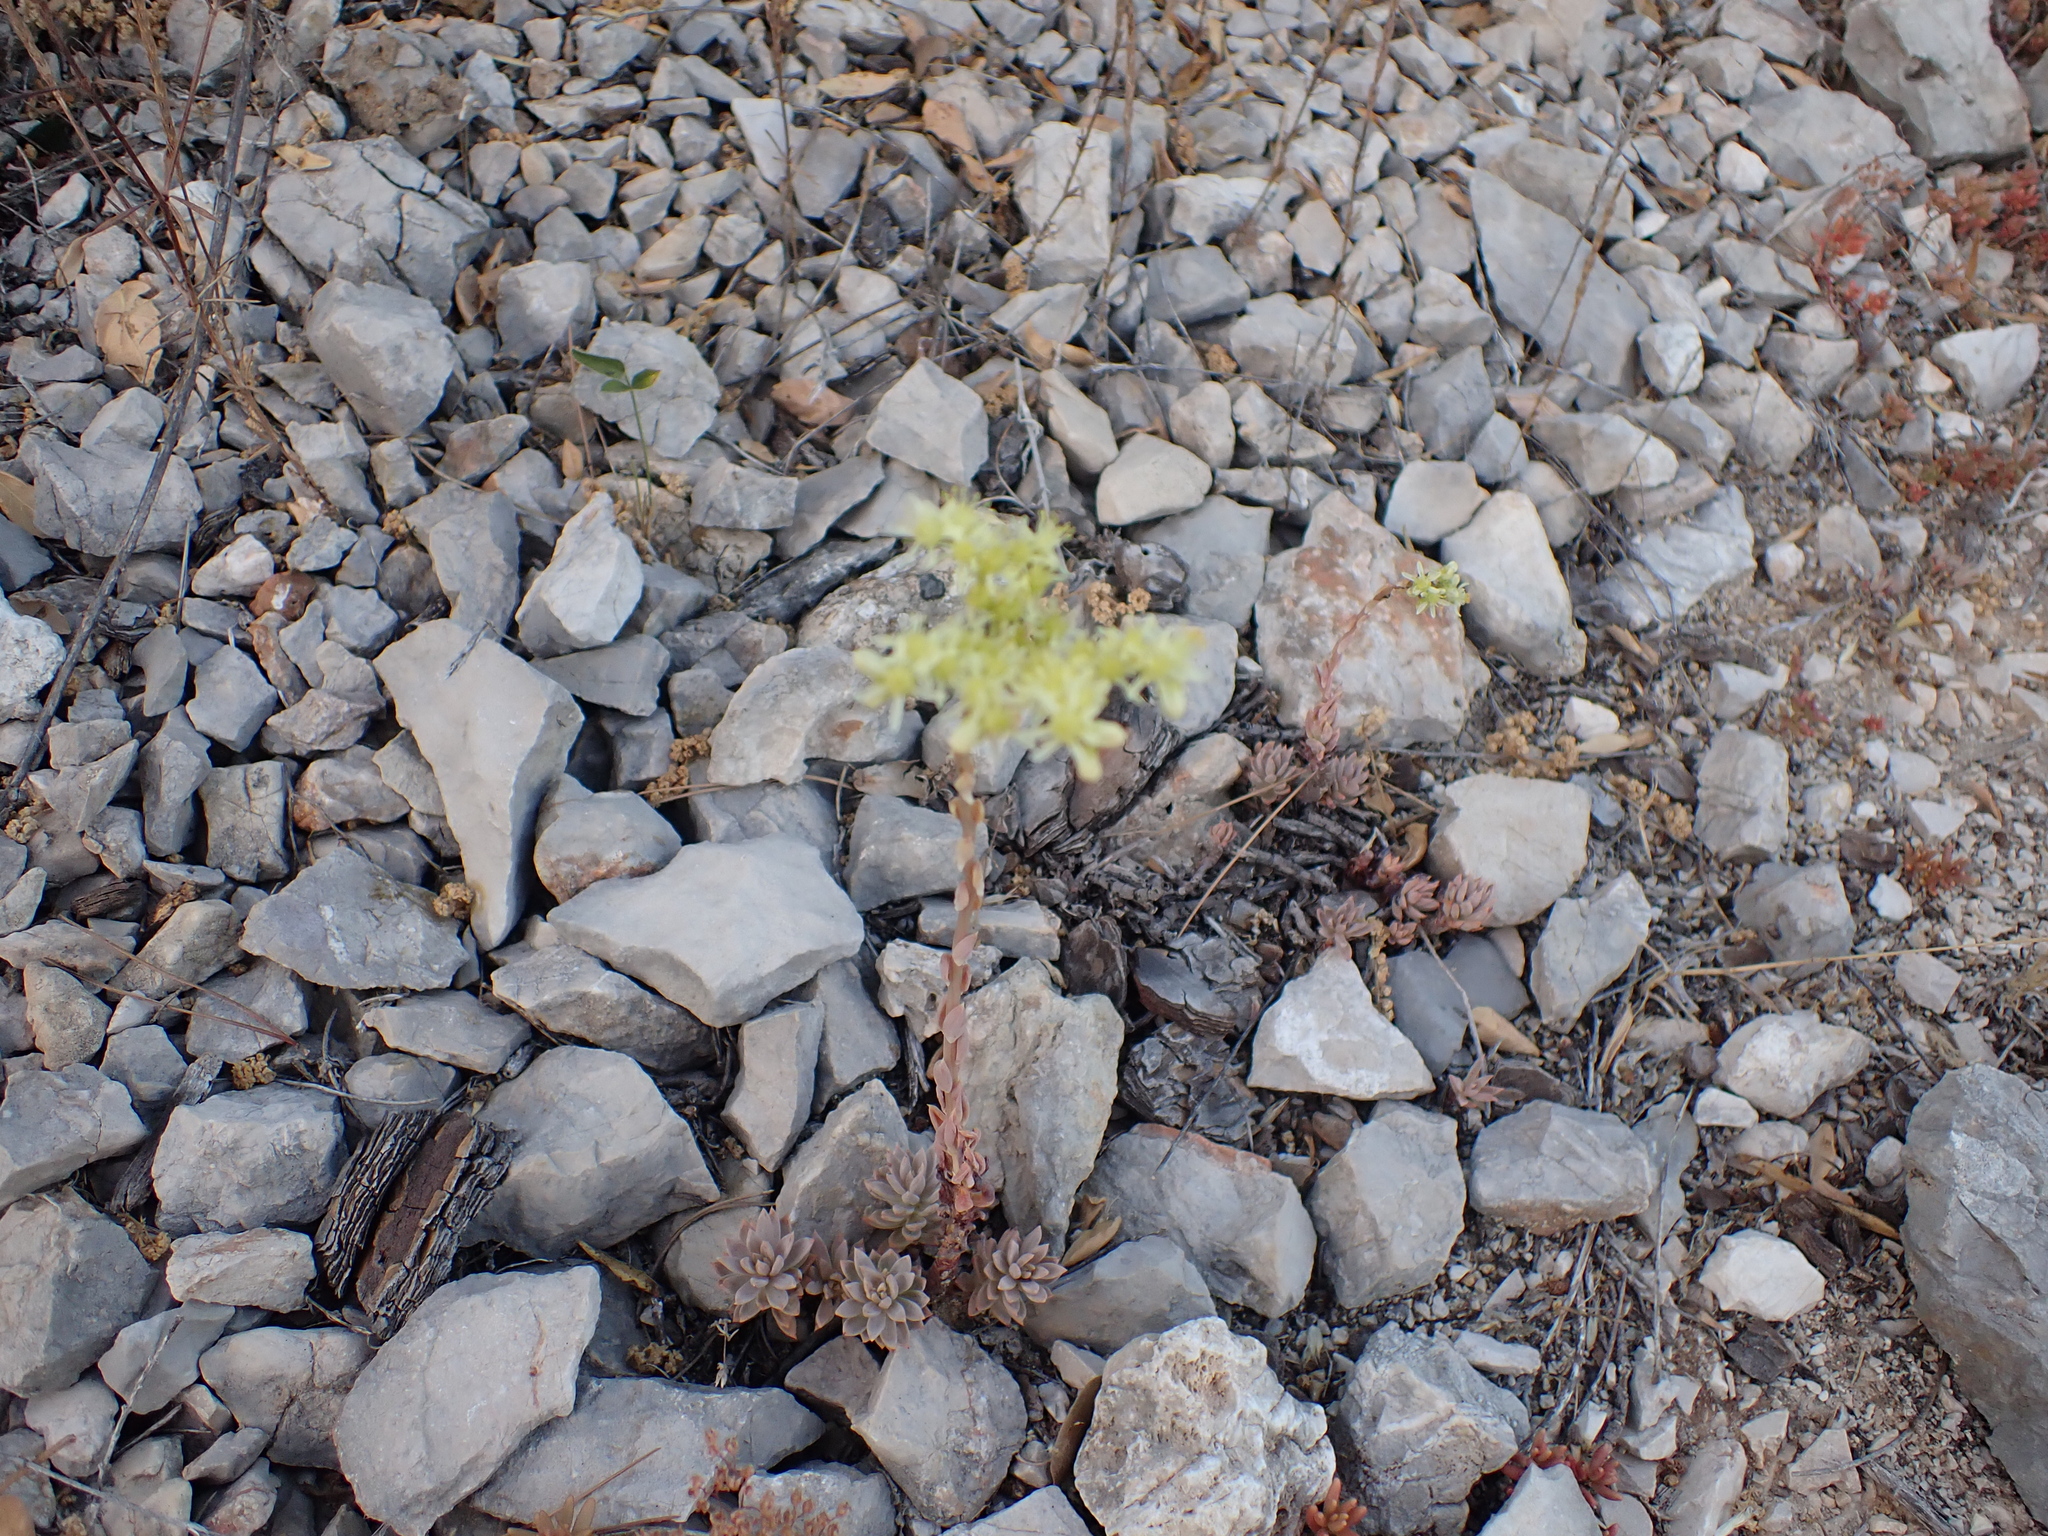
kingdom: Plantae
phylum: Tracheophyta
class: Magnoliopsida
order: Saxifragales
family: Crassulaceae
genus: Petrosedum
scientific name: Petrosedum sediforme
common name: Pale stonecrop
